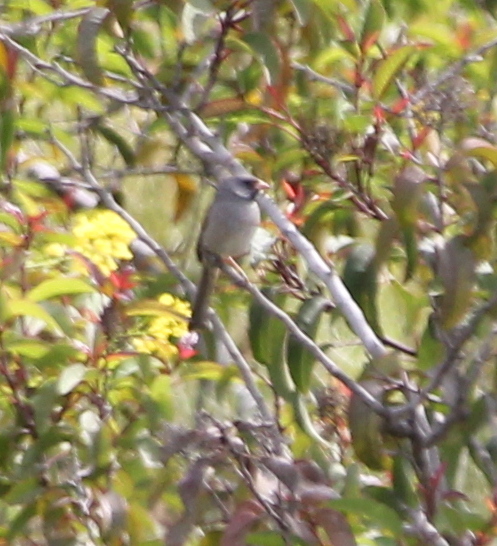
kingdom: Animalia
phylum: Chordata
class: Aves
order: Passeriformes
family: Passerellidae
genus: Spizella
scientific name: Spizella atrogularis
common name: Black-chinned sparrow
